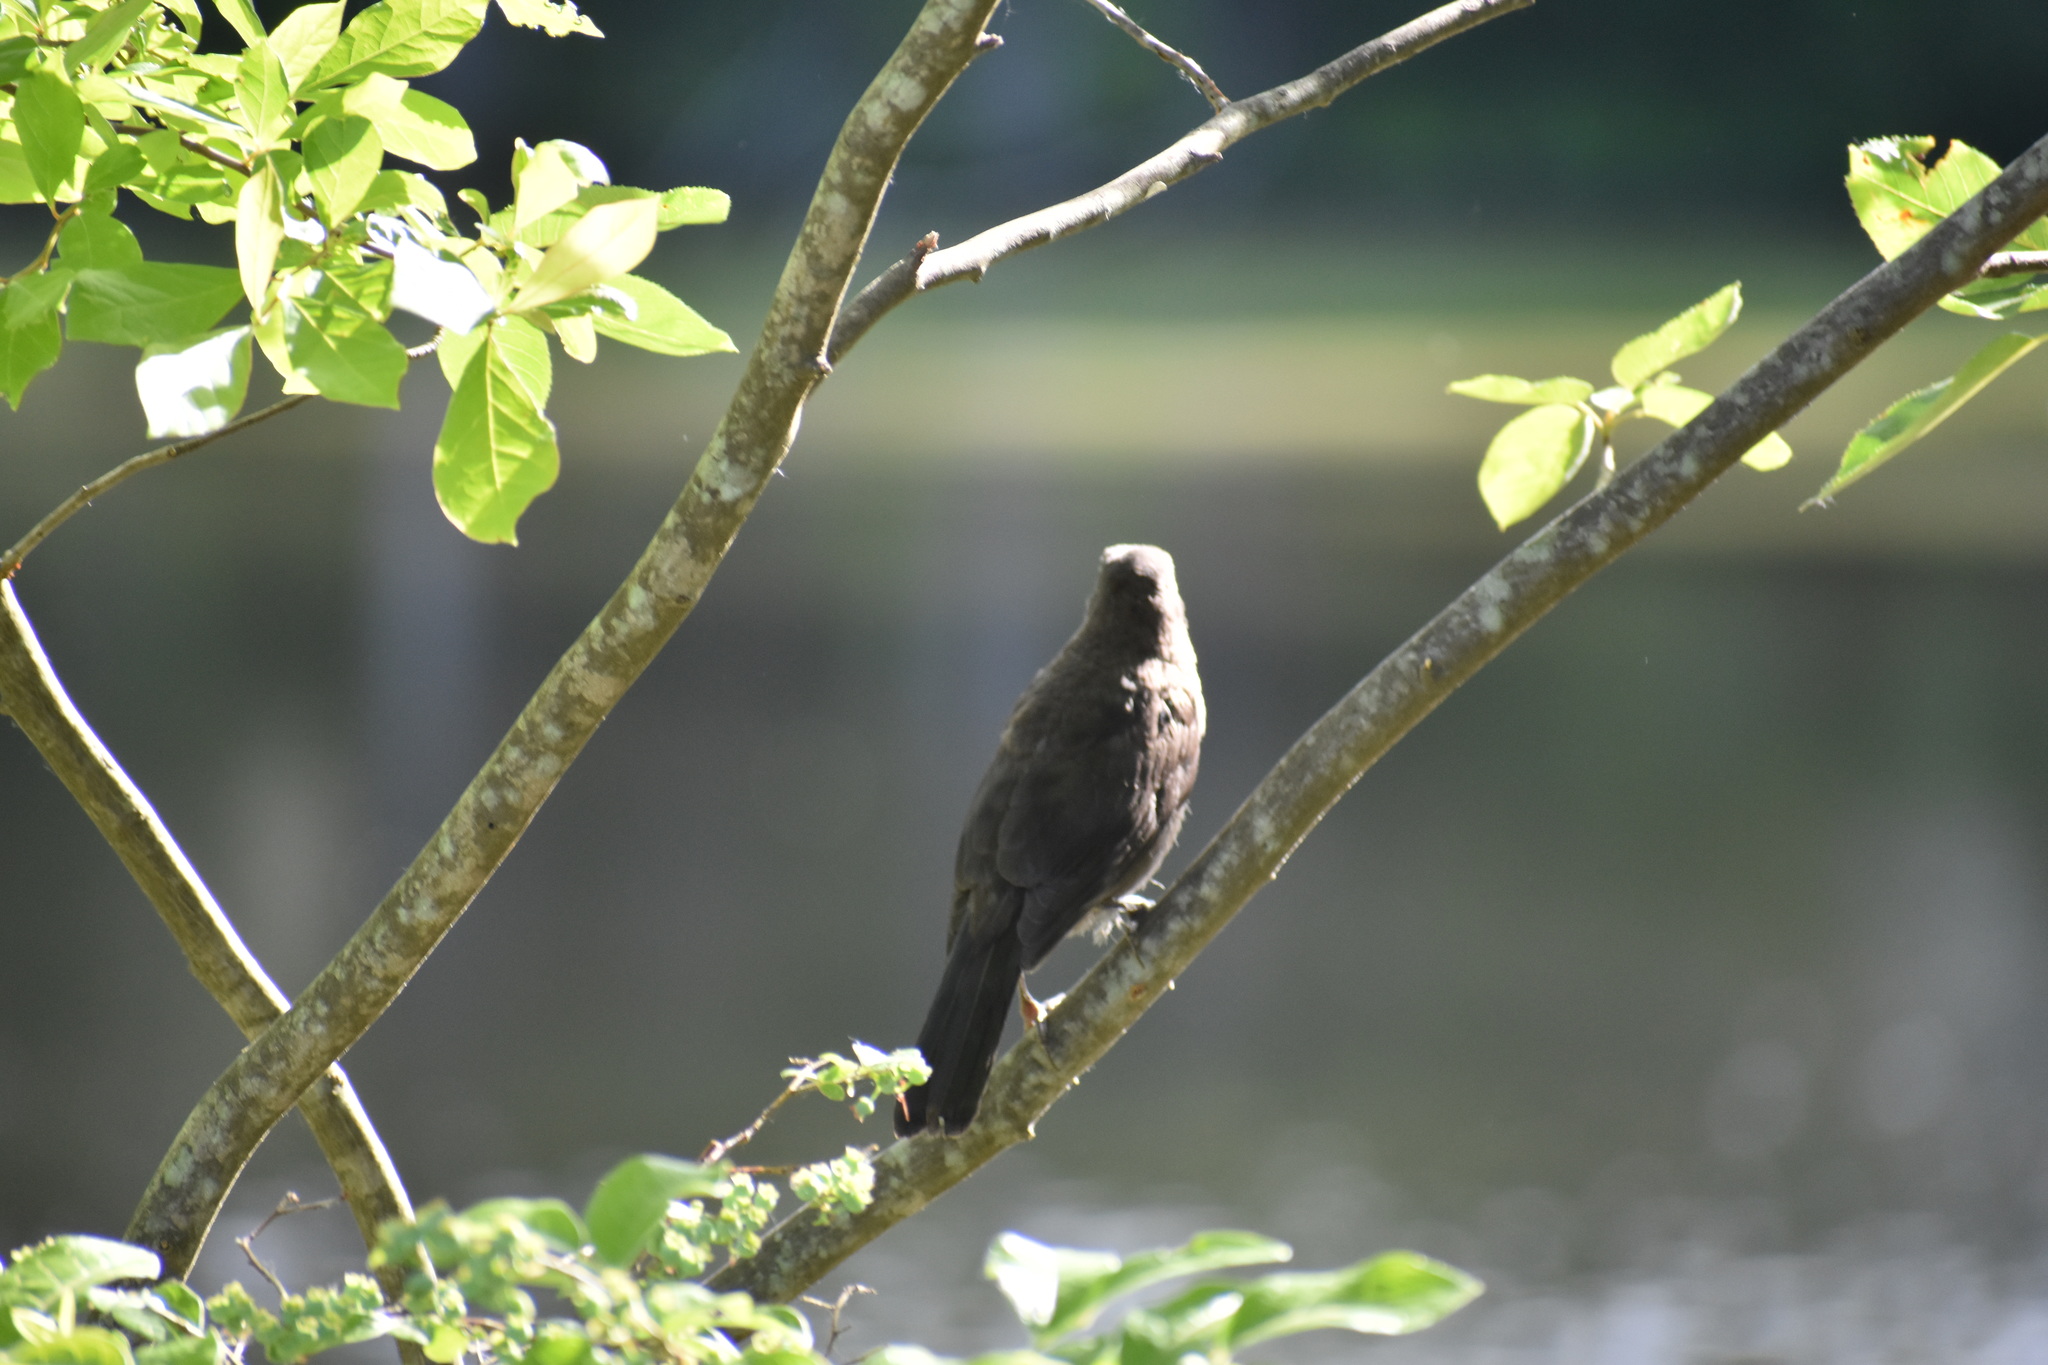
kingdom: Animalia
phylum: Chordata
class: Aves
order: Passeriformes
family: Icteridae
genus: Quiscalus
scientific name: Quiscalus quiscula
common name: Common grackle
